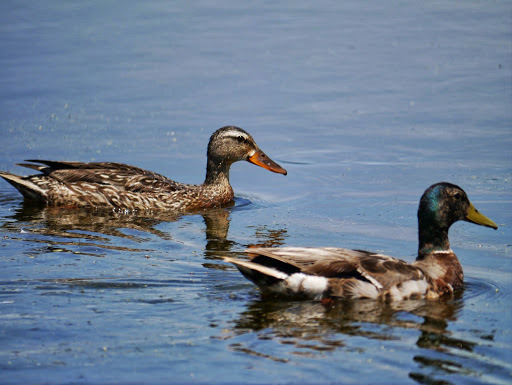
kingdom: Animalia
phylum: Chordata
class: Aves
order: Anseriformes
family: Anatidae
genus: Anas
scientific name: Anas platyrhynchos
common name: Mallard
